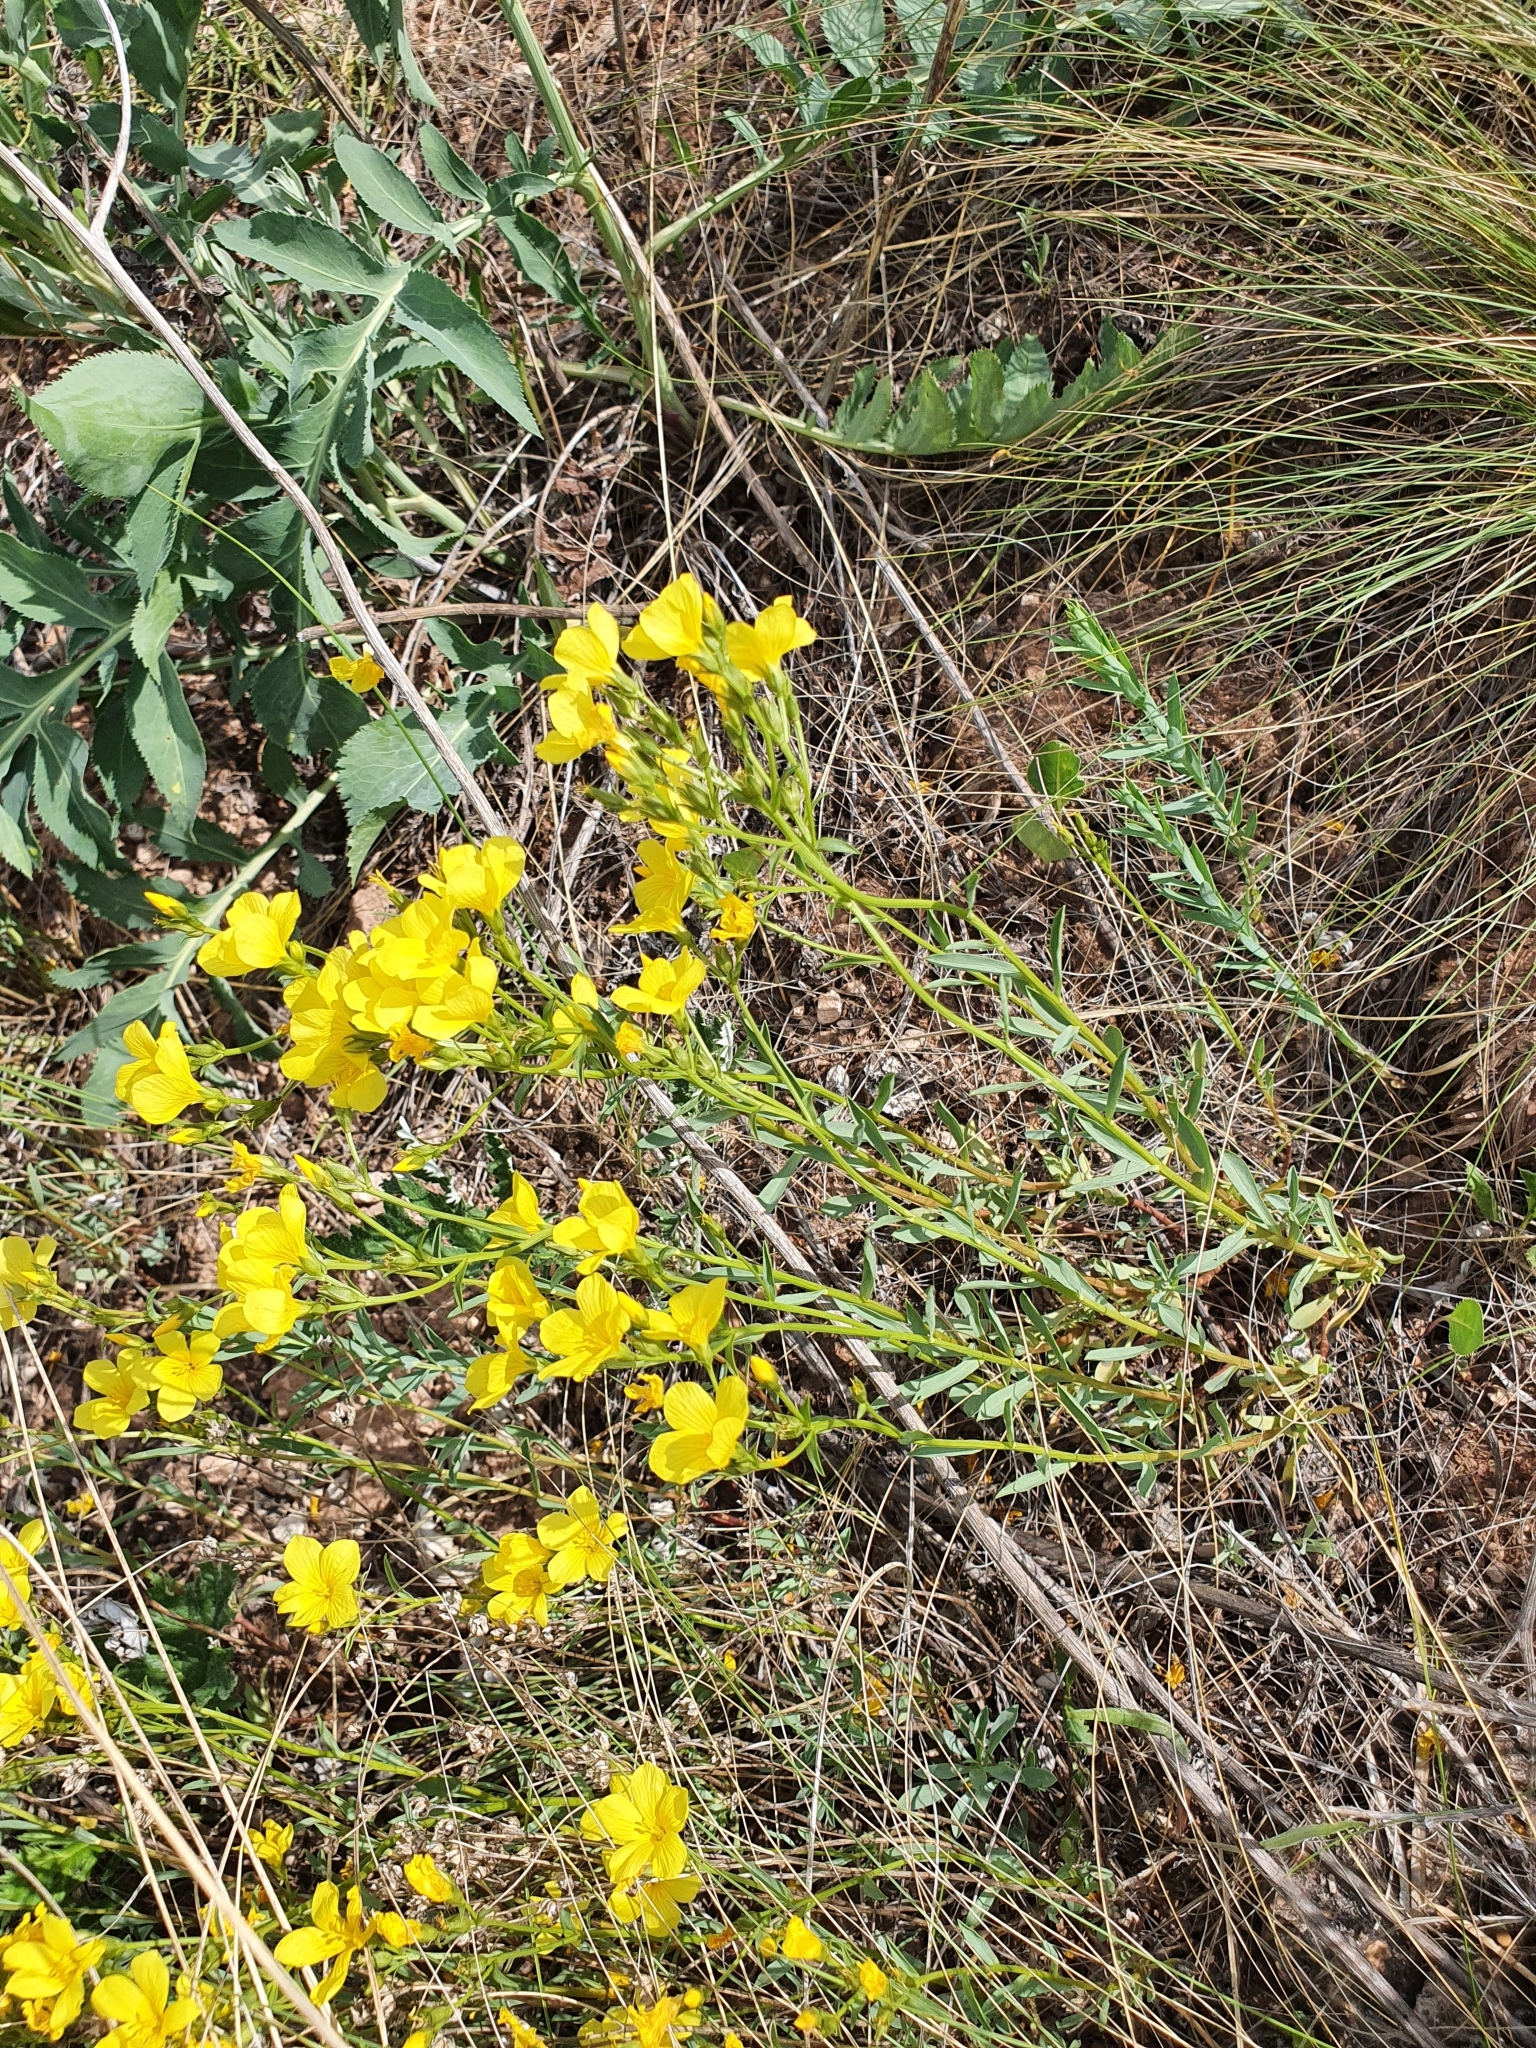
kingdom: Plantae
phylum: Tracheophyta
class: Magnoliopsida
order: Malpighiales
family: Linaceae
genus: Linum
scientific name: Linum ucranicum
